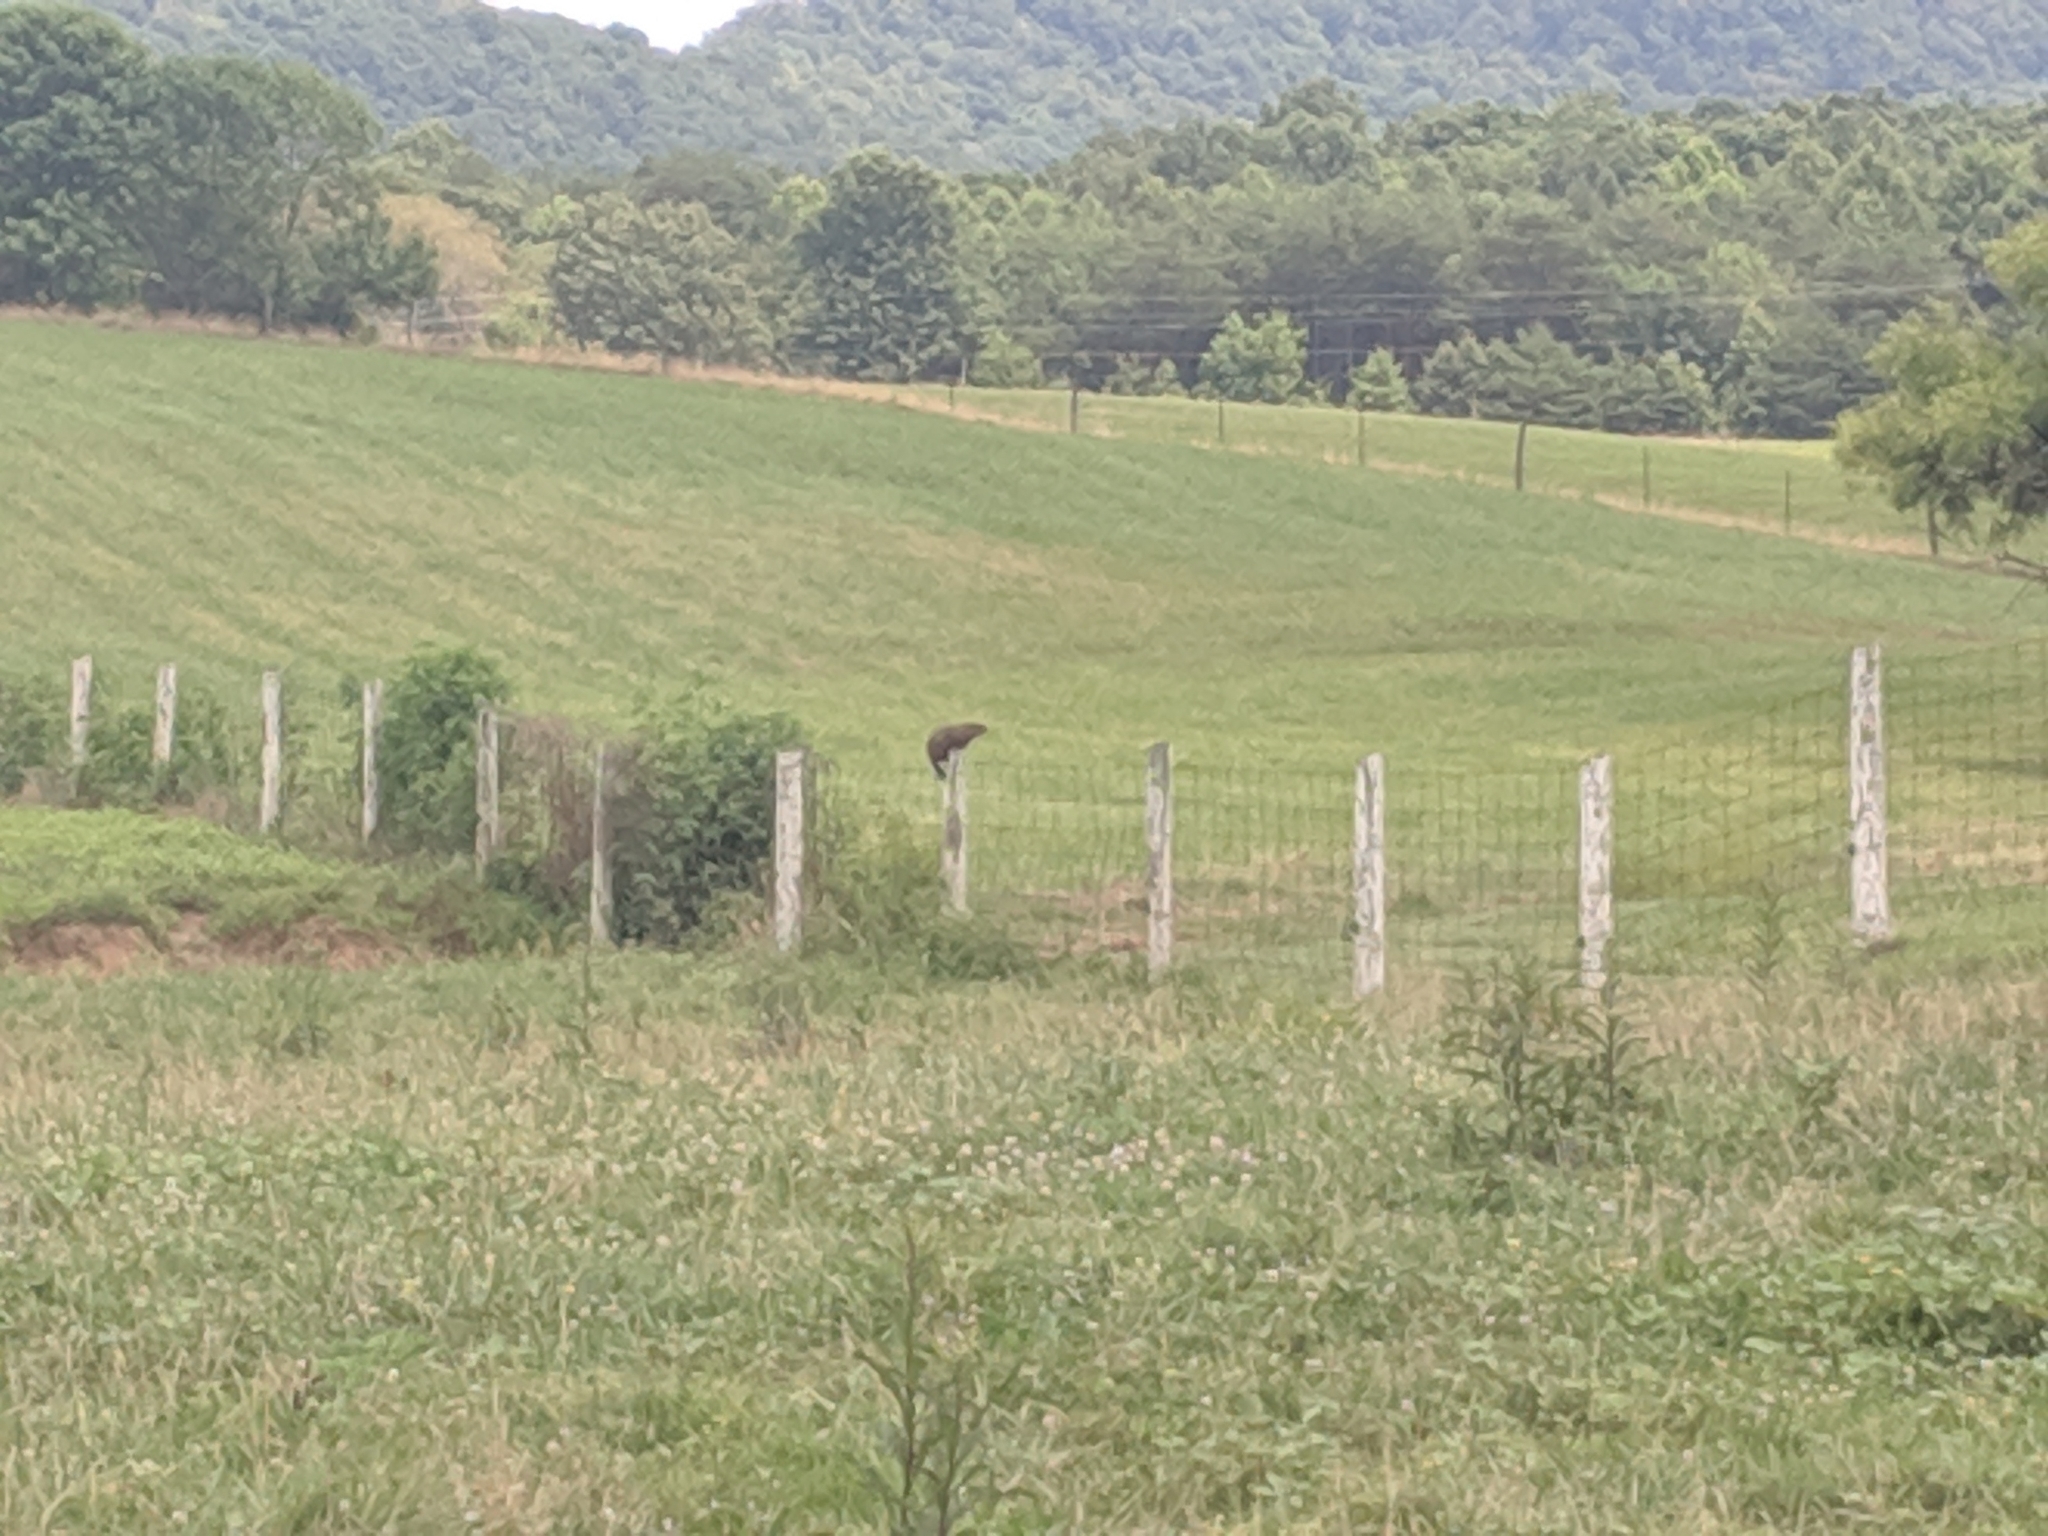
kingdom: Animalia
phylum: Chordata
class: Mammalia
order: Rodentia
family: Sciuridae
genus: Marmota
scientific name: Marmota monax
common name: Groundhog
